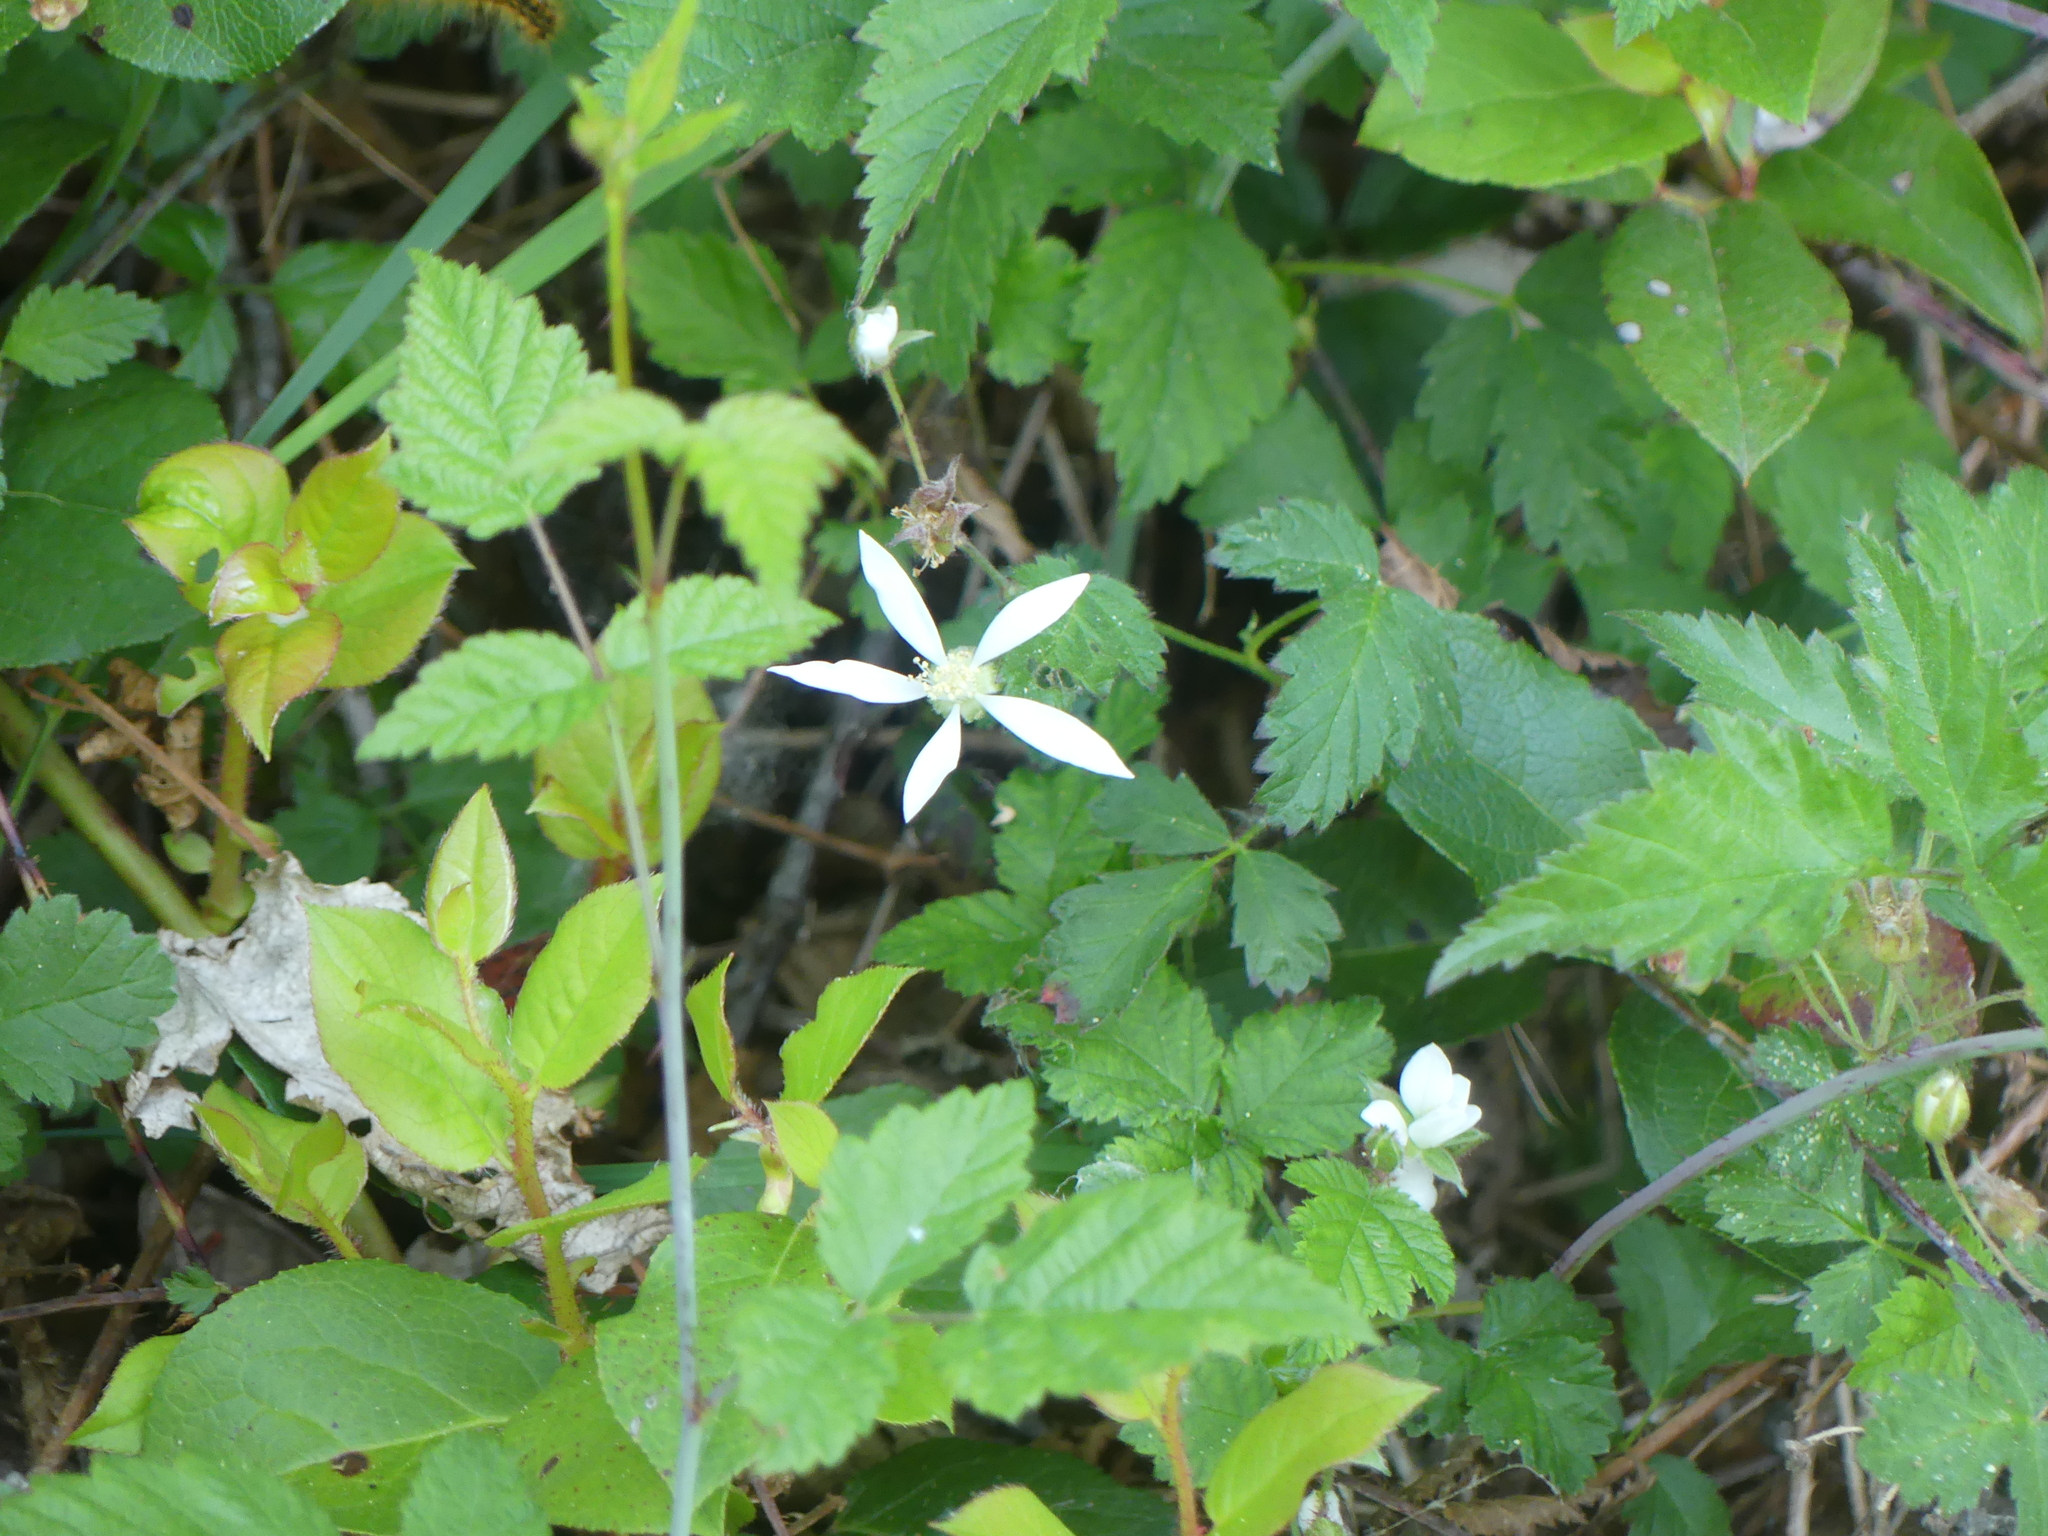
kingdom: Plantae
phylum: Tracheophyta
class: Magnoliopsida
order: Rosales
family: Rosaceae
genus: Rubus
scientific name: Rubus ursinus
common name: Pacific blackberry
